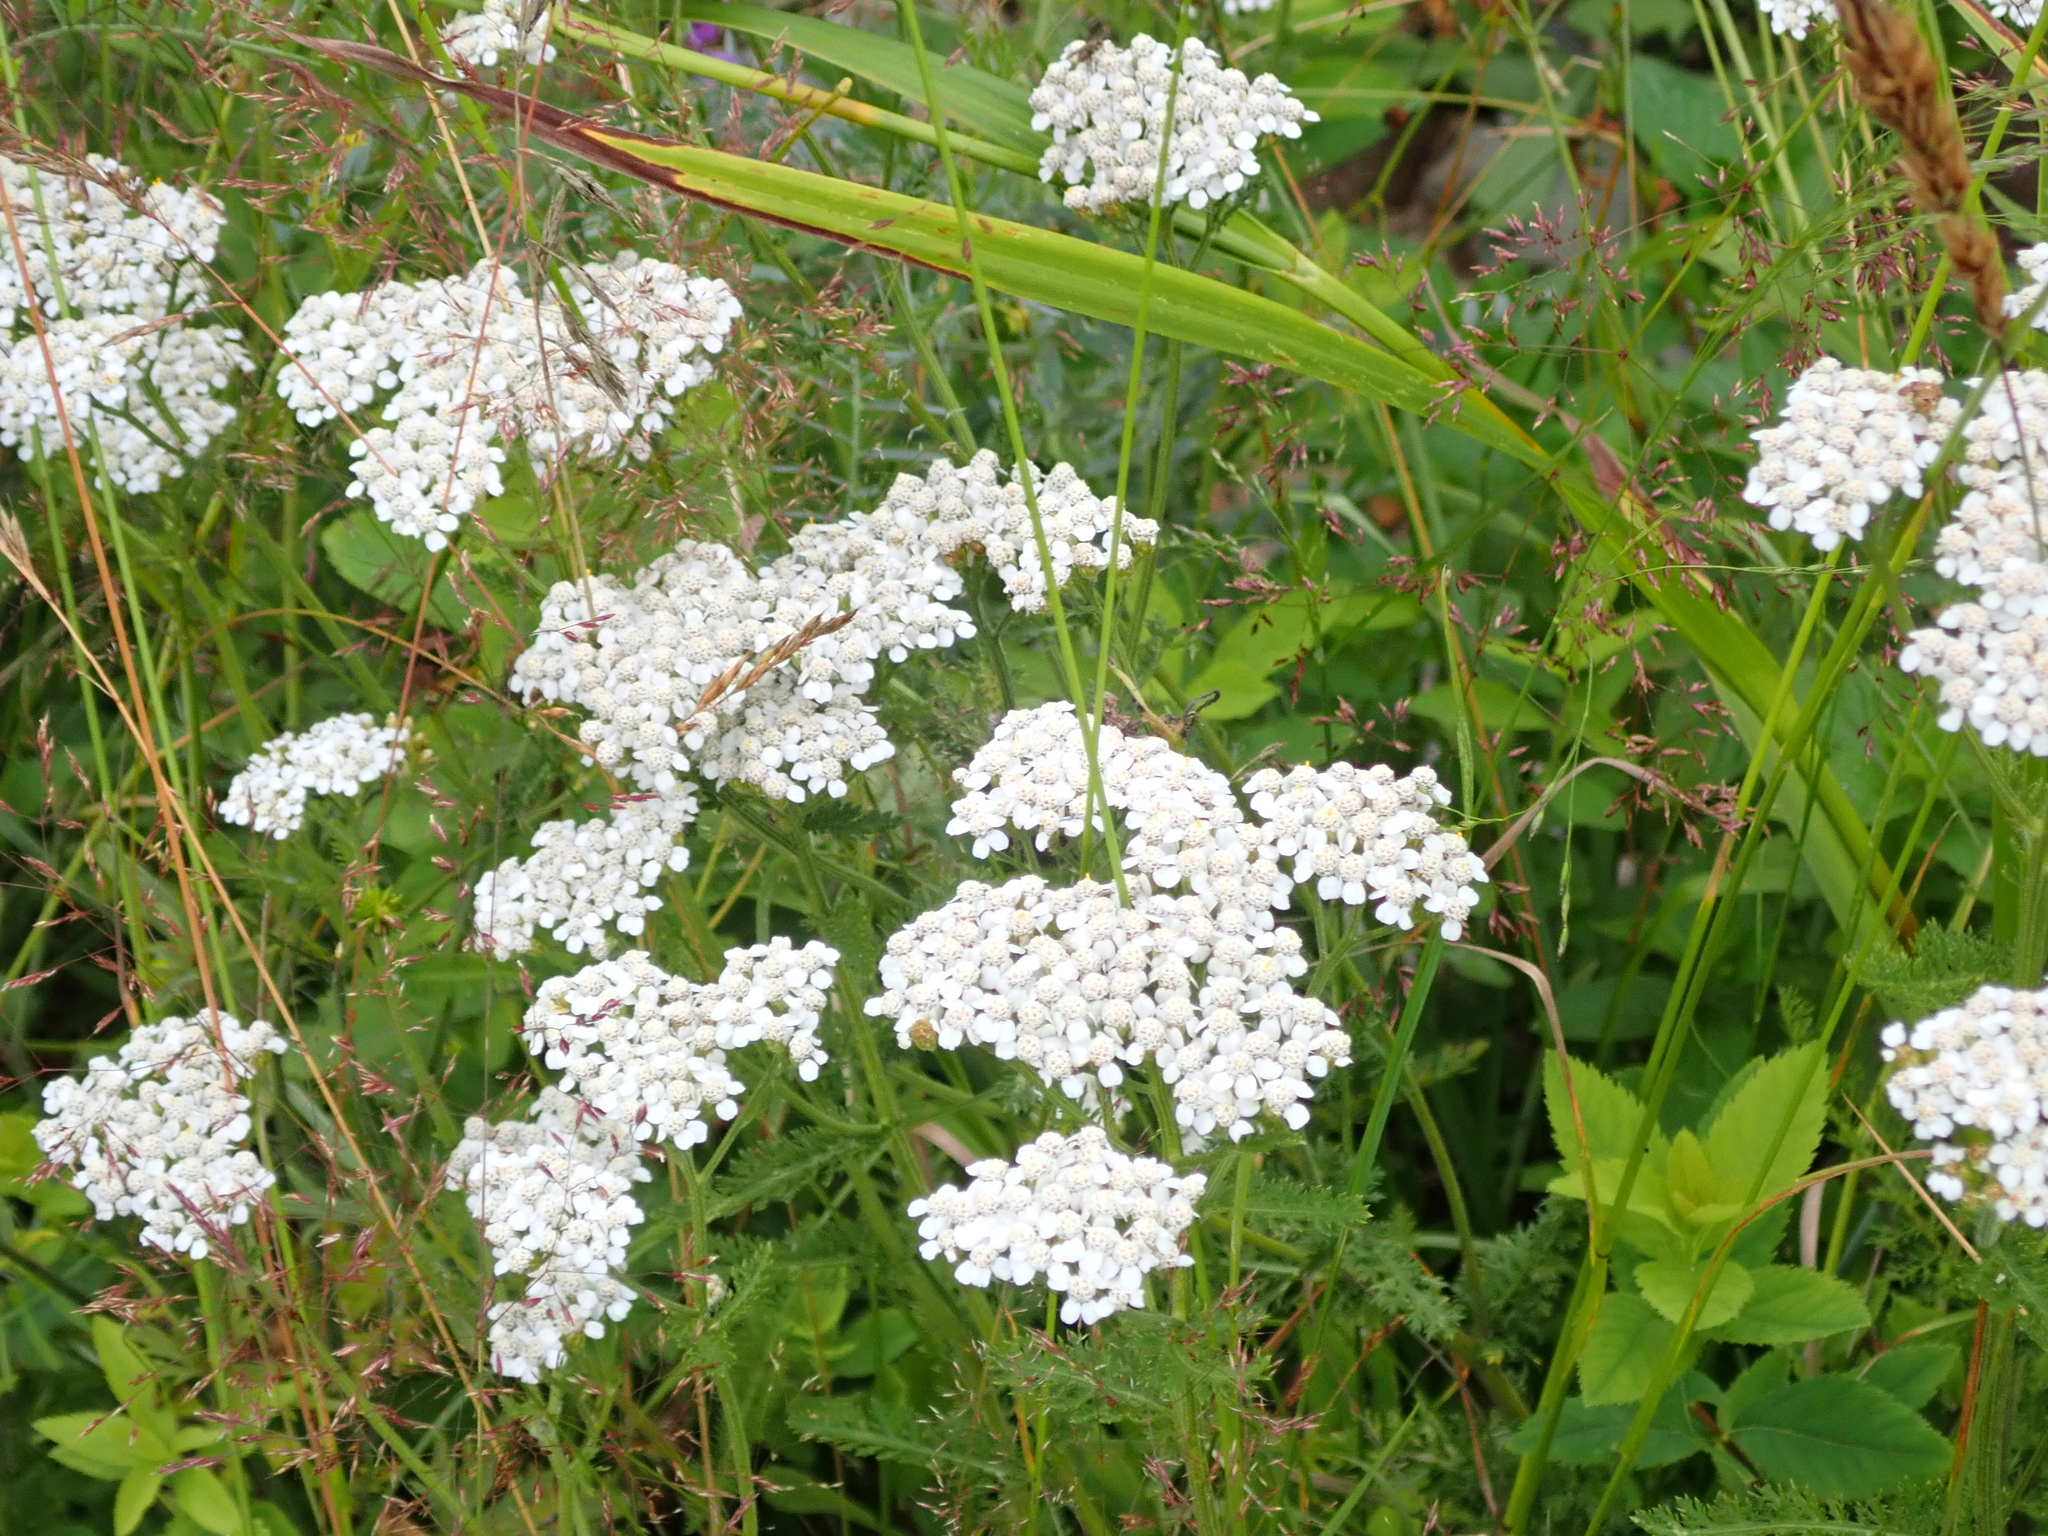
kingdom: Plantae
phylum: Tracheophyta
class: Magnoliopsida
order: Asterales
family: Asteraceae
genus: Achillea
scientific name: Achillea millefolium
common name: Yarrow
